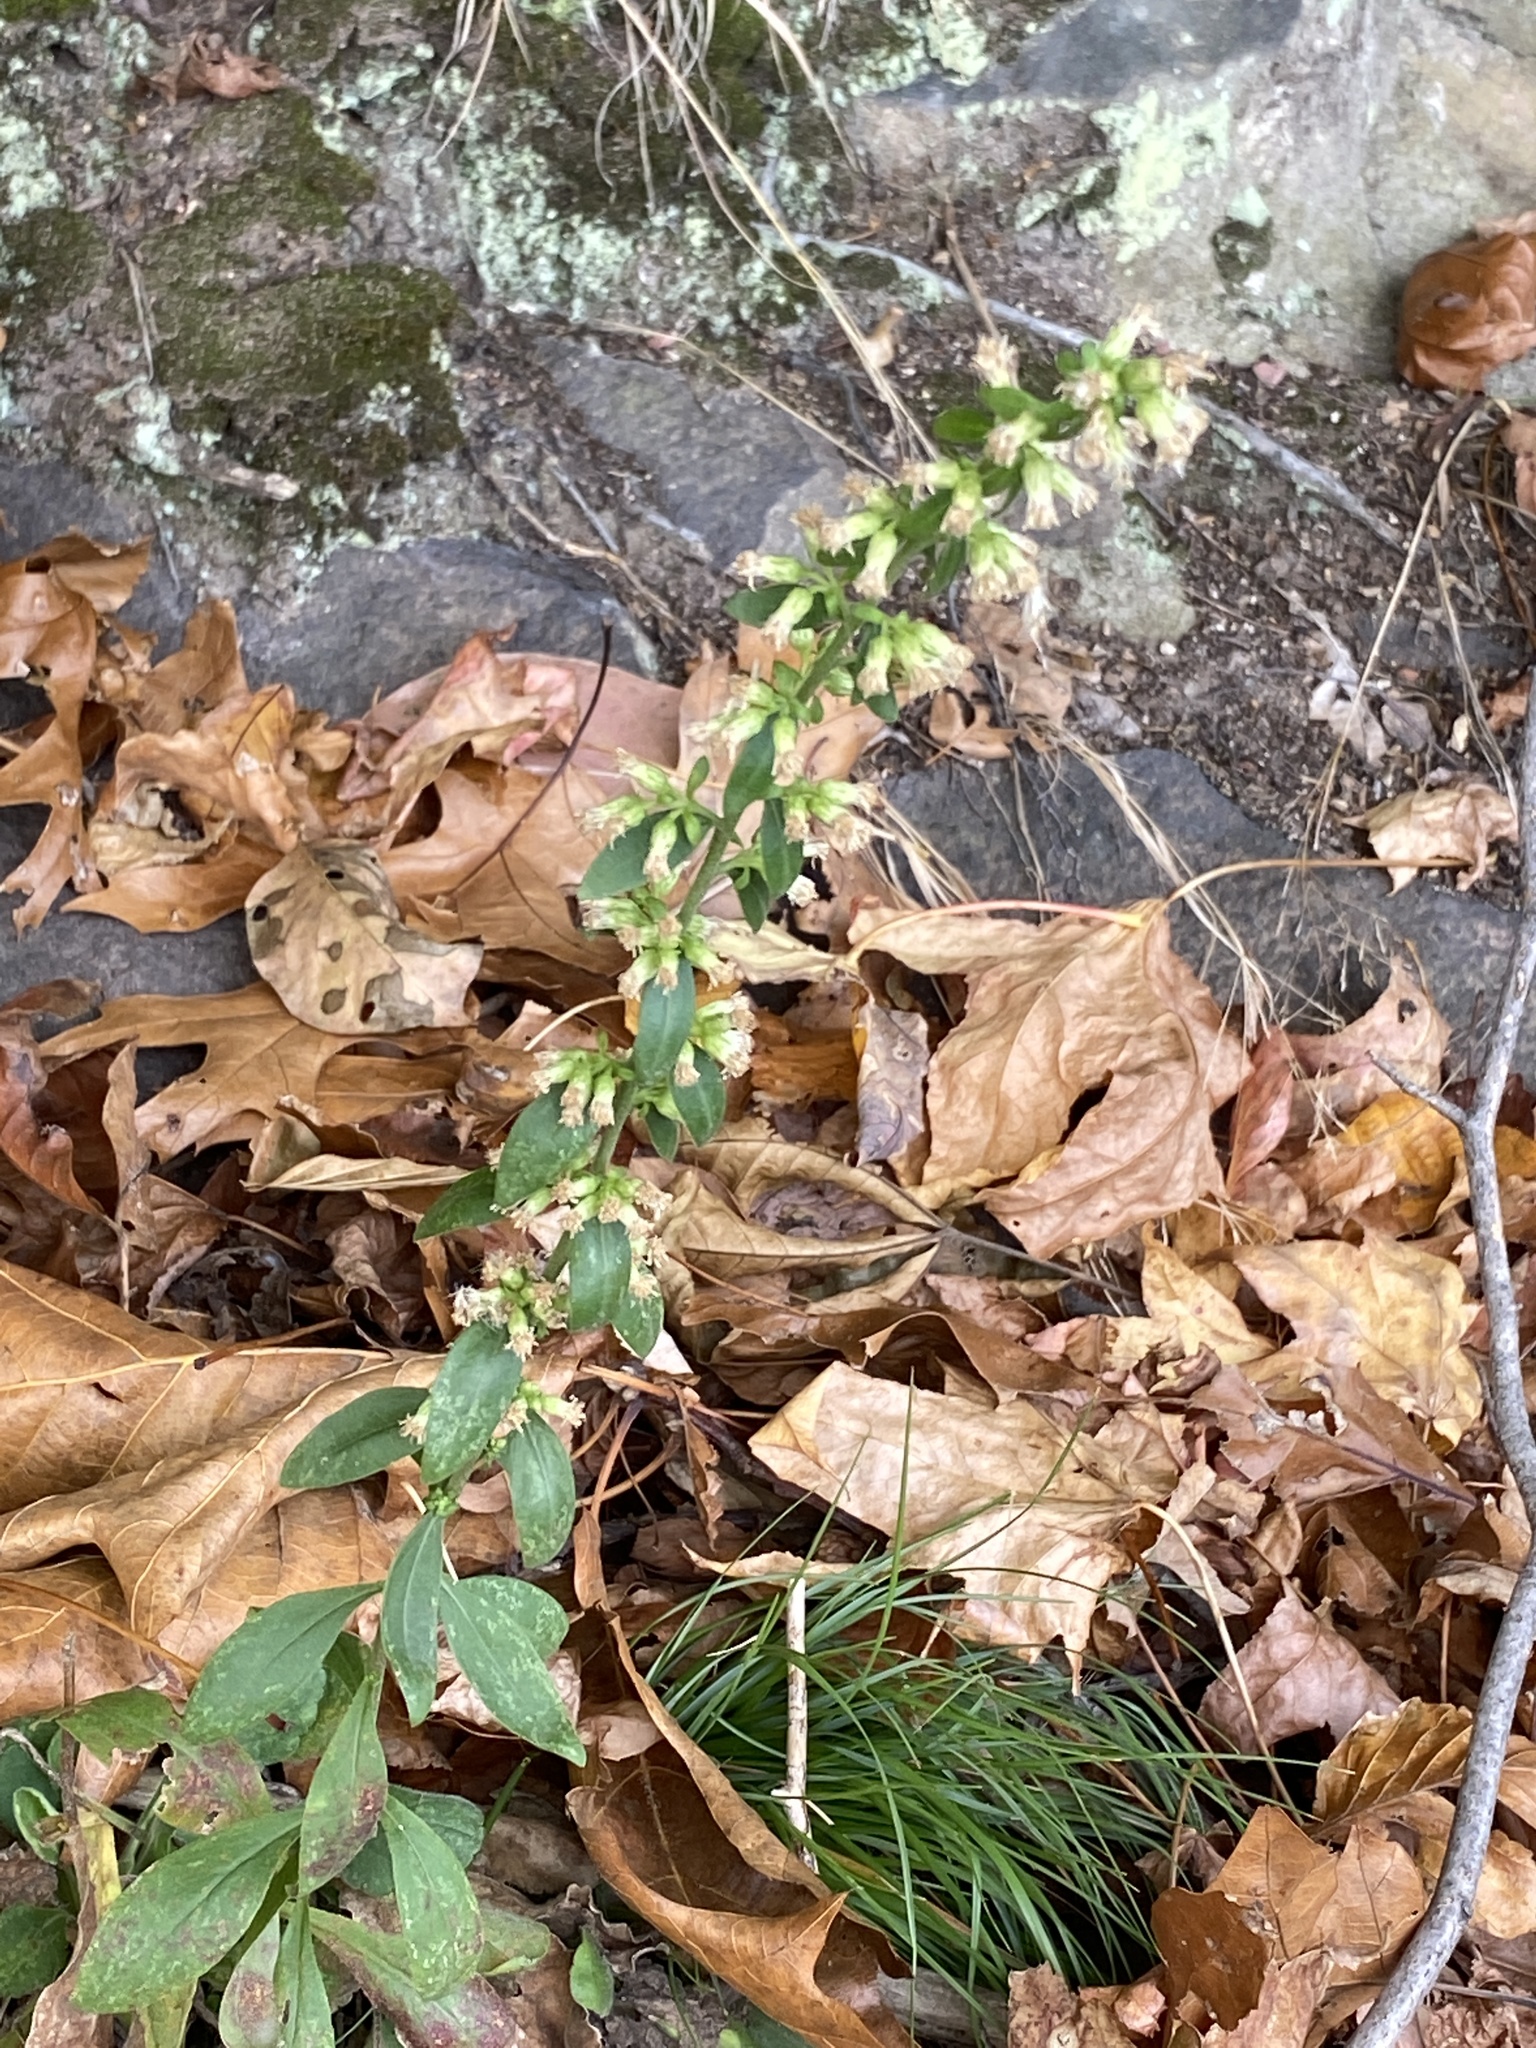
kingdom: Plantae
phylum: Tracheophyta
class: Magnoliopsida
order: Asterales
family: Asteraceae
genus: Solidago
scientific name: Solidago bicolor
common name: Silverrod
